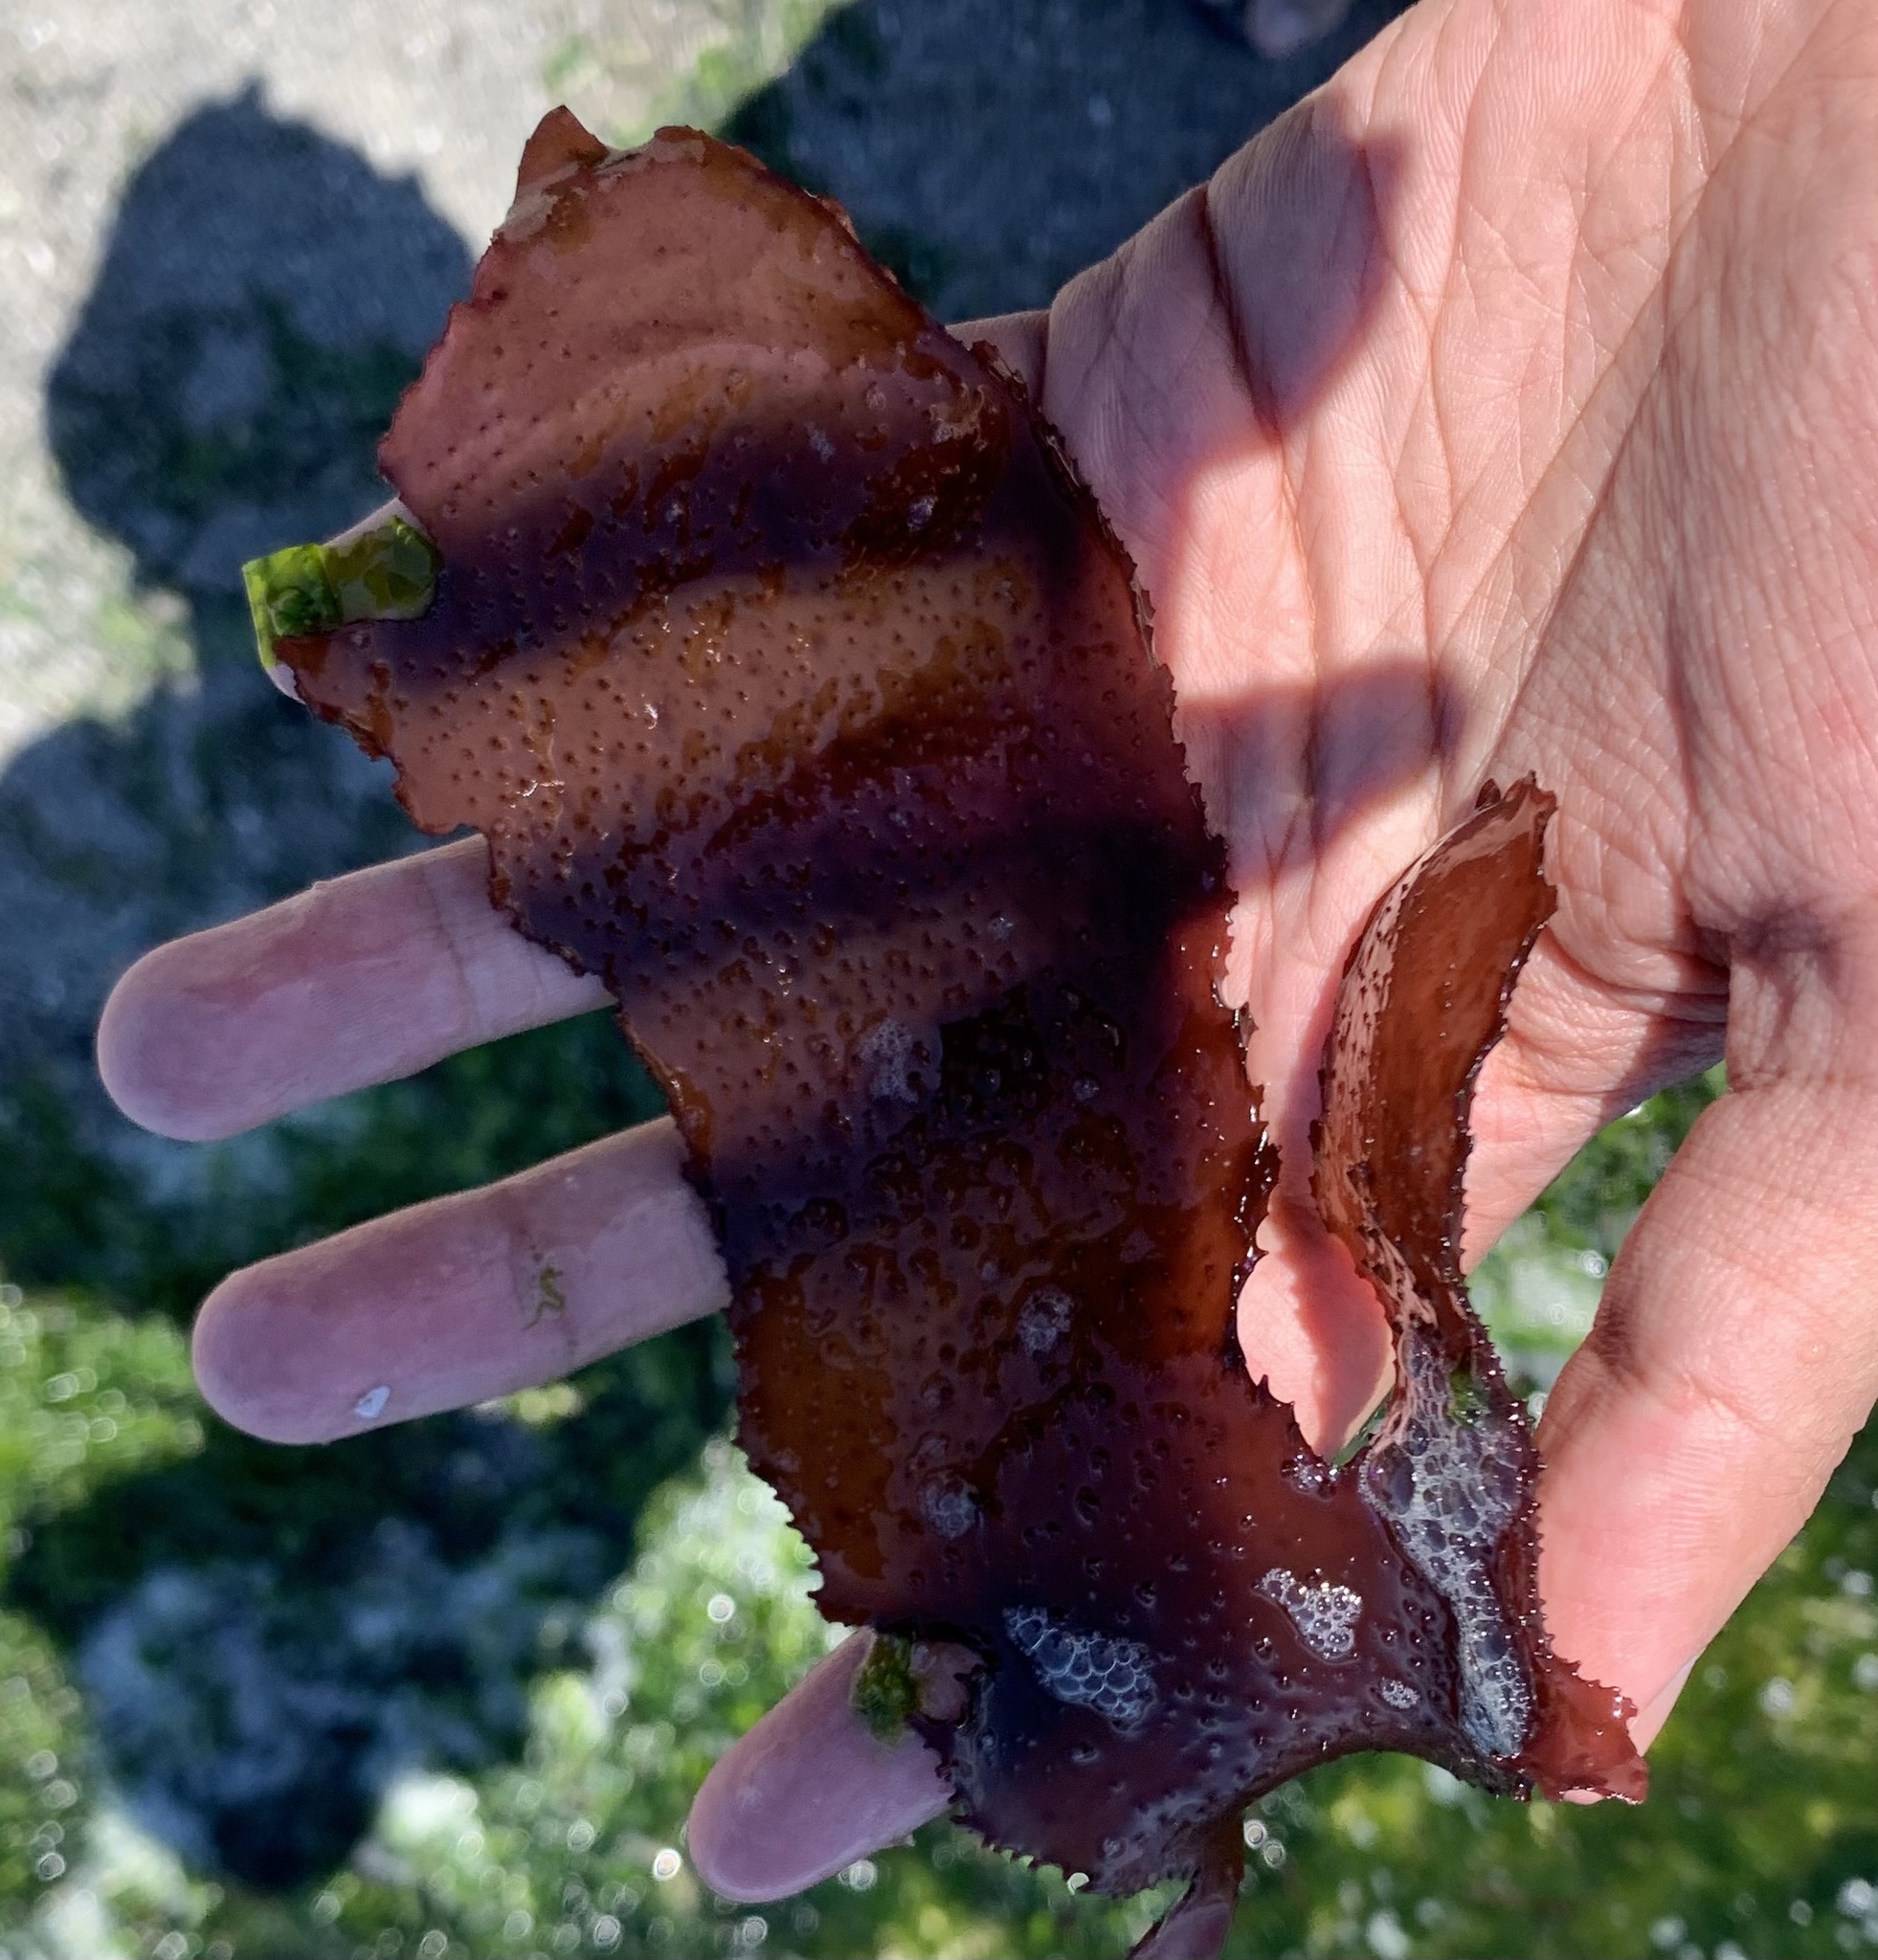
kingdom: Plantae
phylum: Rhodophyta
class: Florideophyceae
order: Gigartinales
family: Gigartinaceae
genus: Chondracanthus
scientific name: Chondracanthus exasperatus
